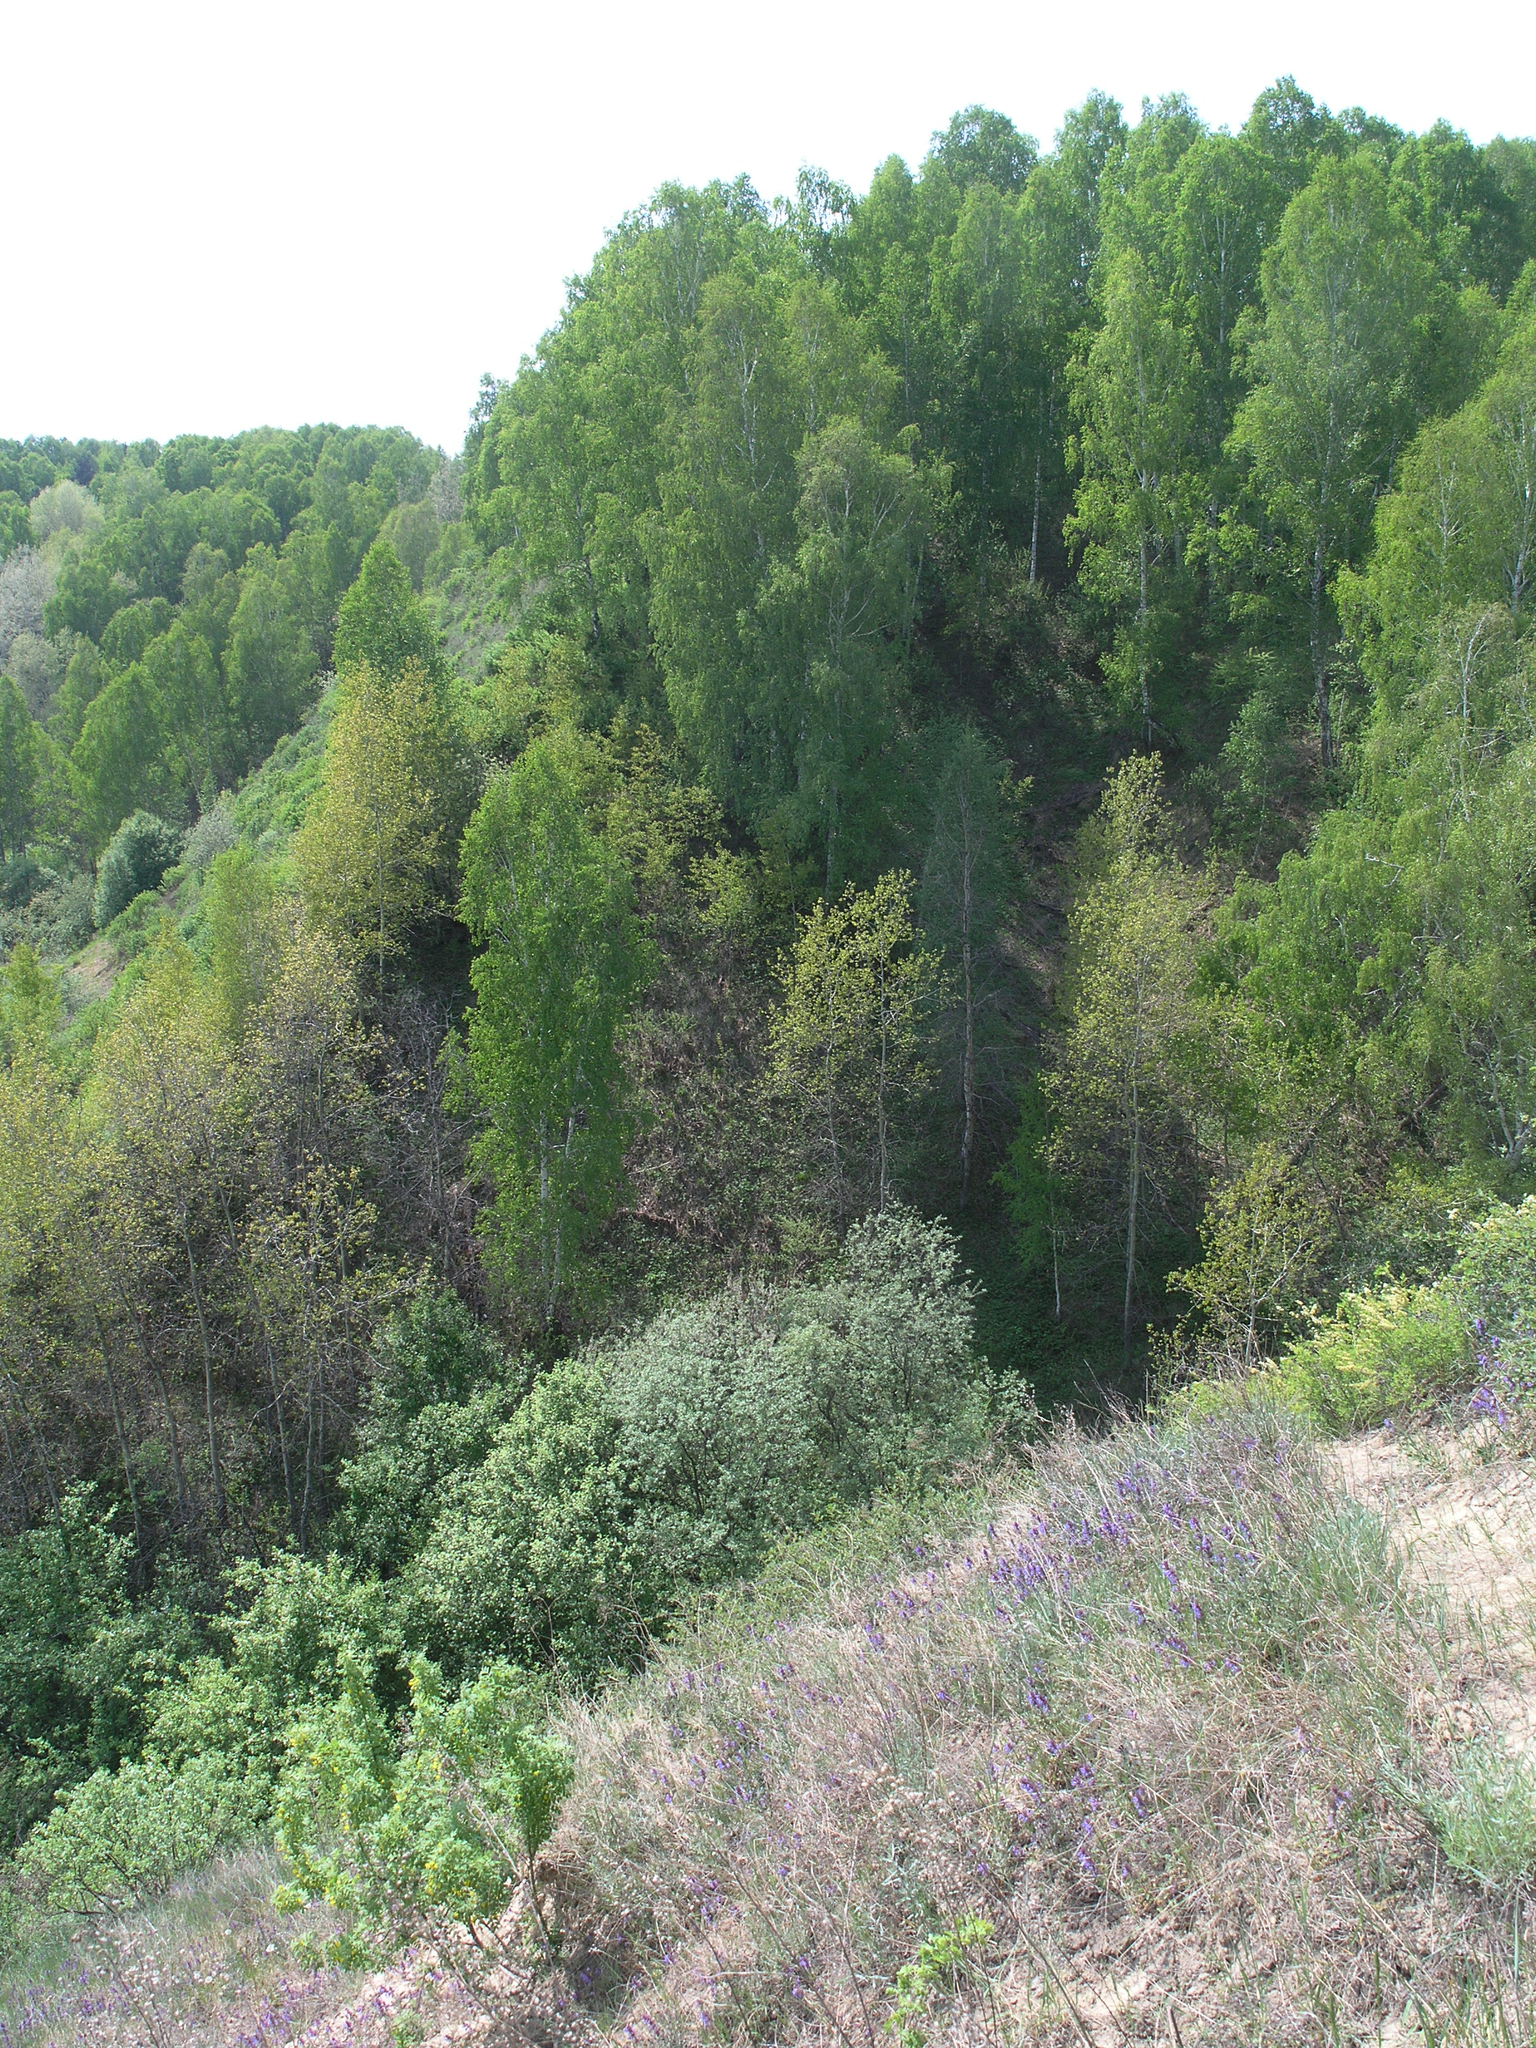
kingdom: Plantae
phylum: Tracheophyta
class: Magnoliopsida
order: Malpighiales
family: Salicaceae
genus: Populus
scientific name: Populus tremula
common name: European aspen
